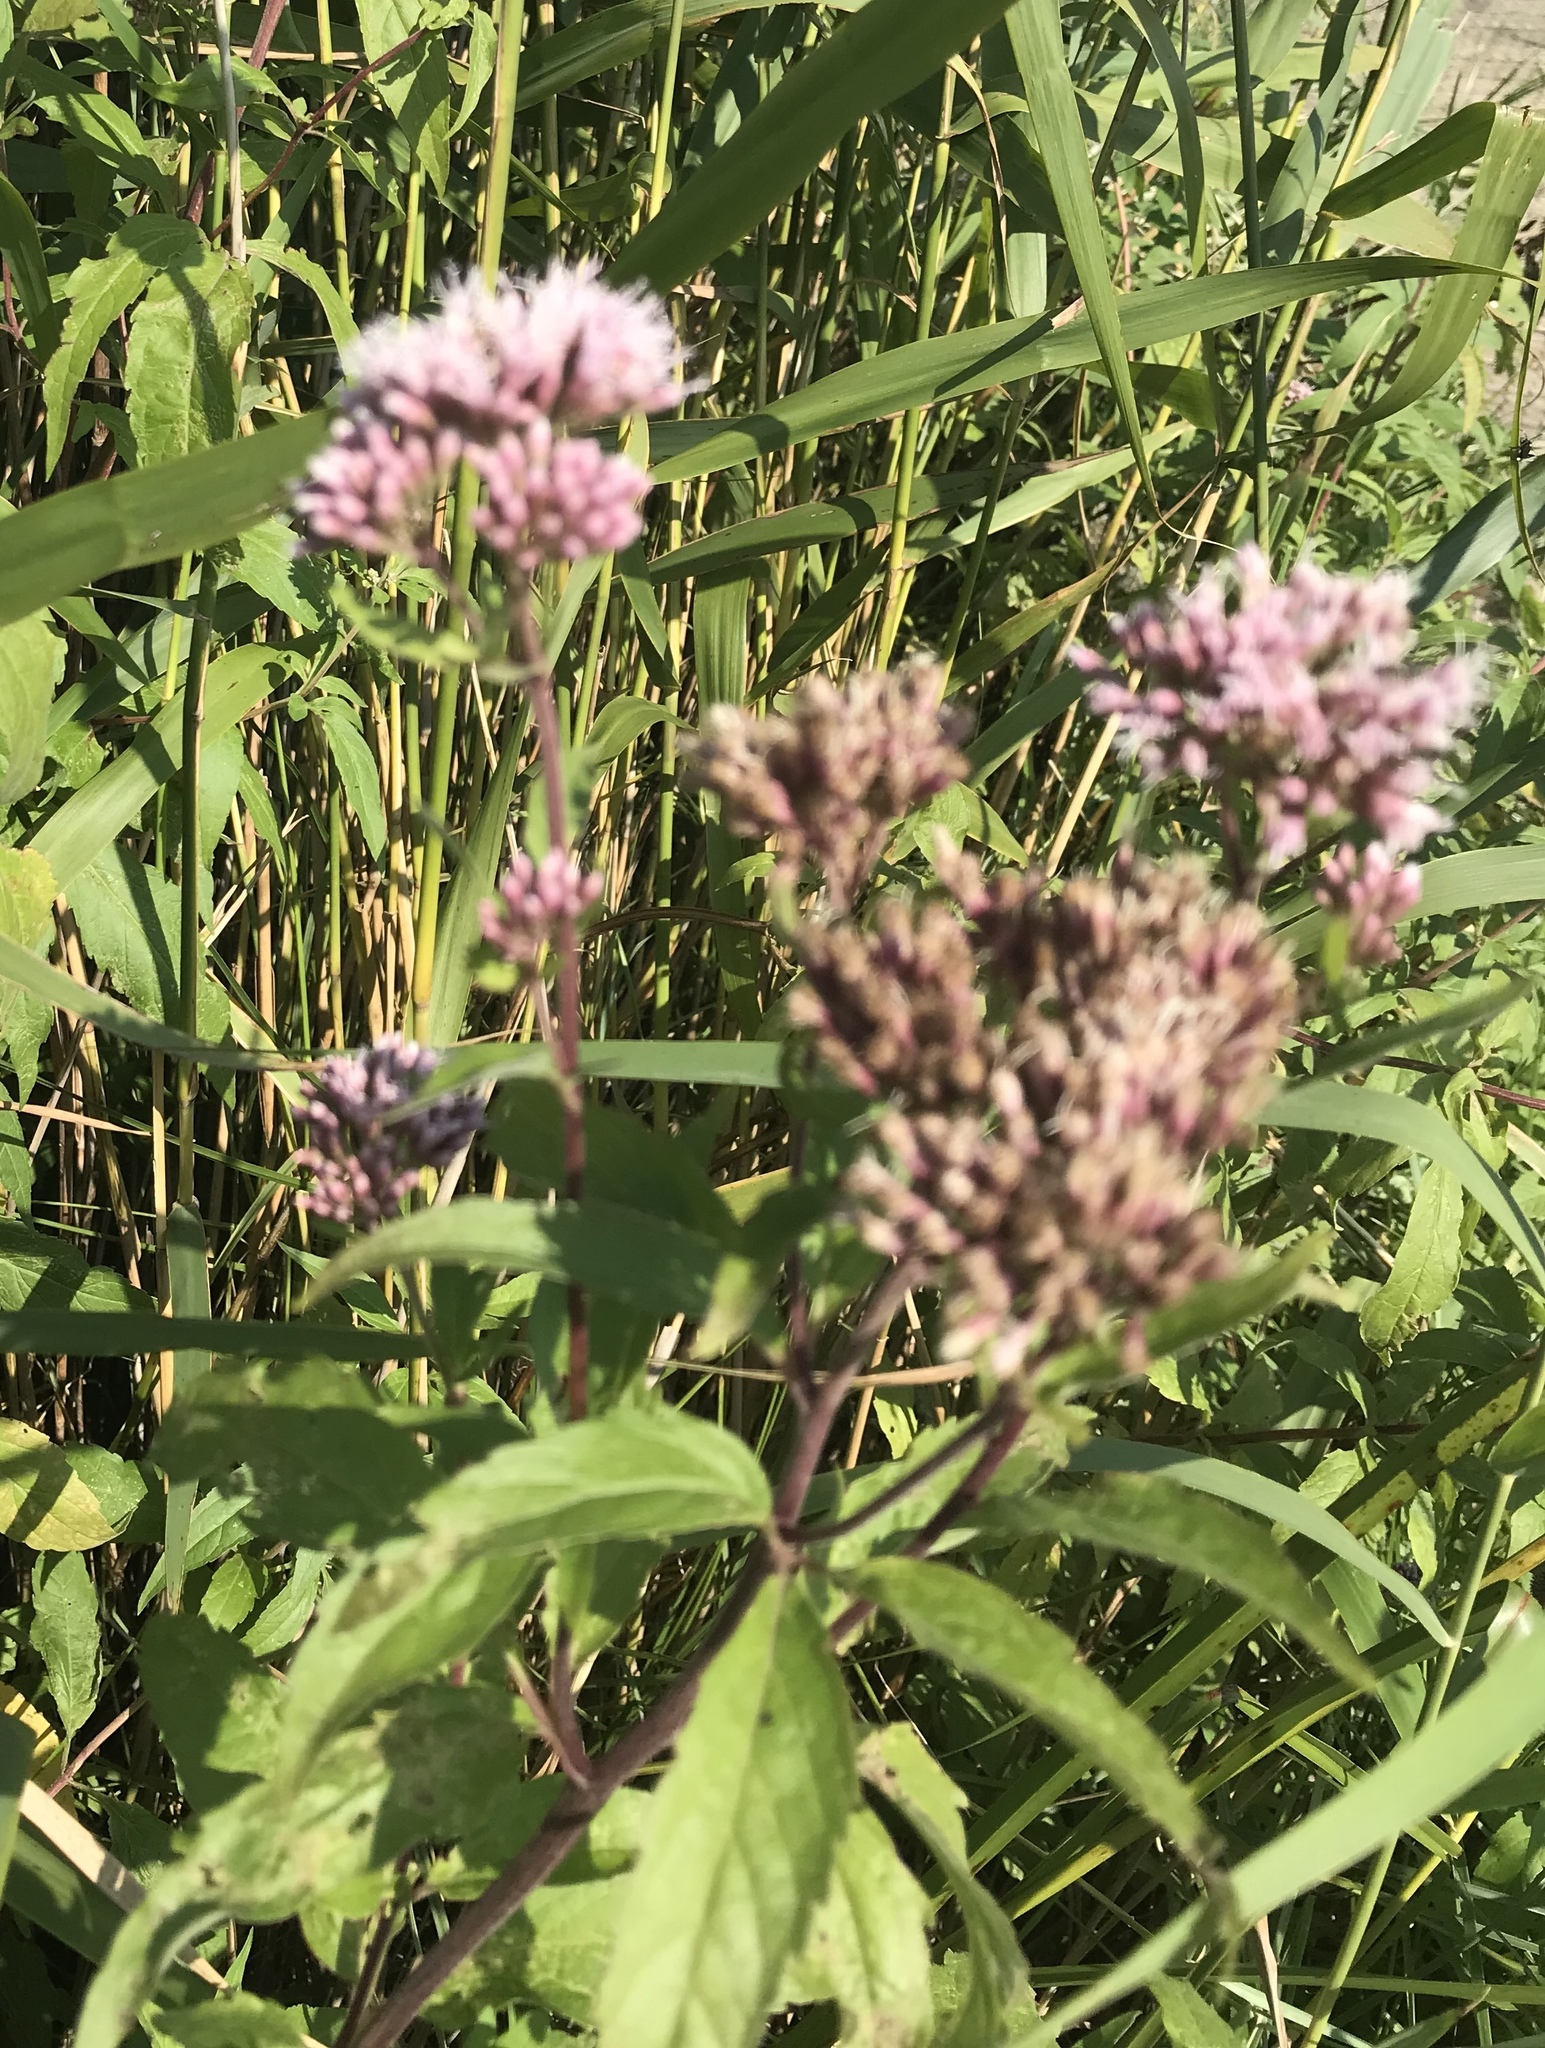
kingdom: Plantae
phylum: Tracheophyta
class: Magnoliopsida
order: Asterales
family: Asteraceae
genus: Eupatorium
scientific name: Eupatorium cannabinum
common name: Hemp-agrimony
